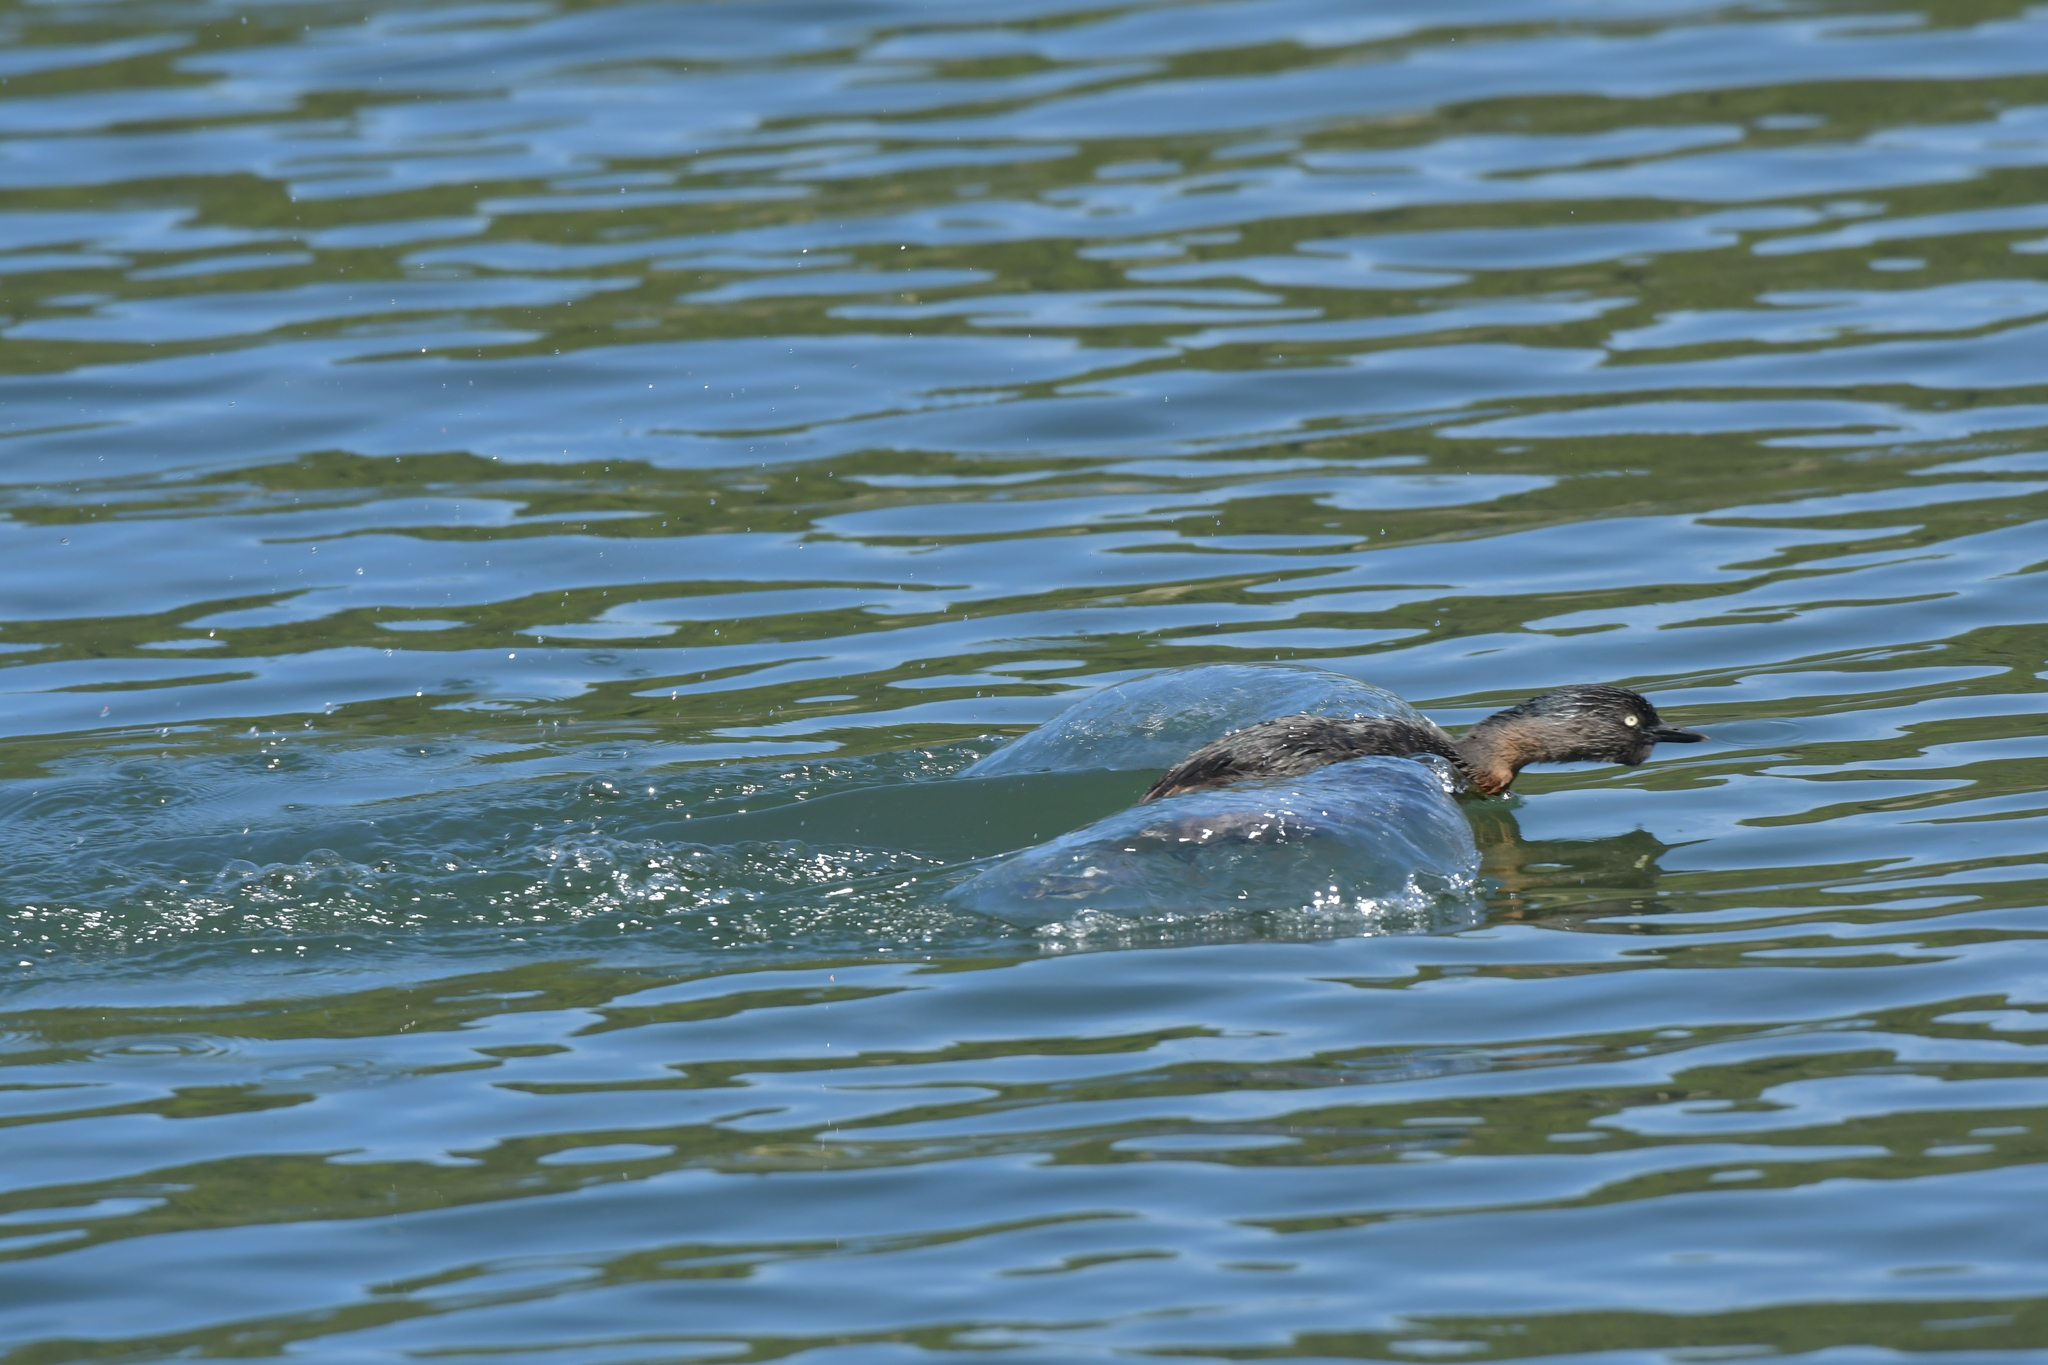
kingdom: Animalia
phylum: Chordata
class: Aves
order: Podicipediformes
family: Podicipedidae
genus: Poliocephalus
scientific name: Poliocephalus rufopectus
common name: New zealand grebe
